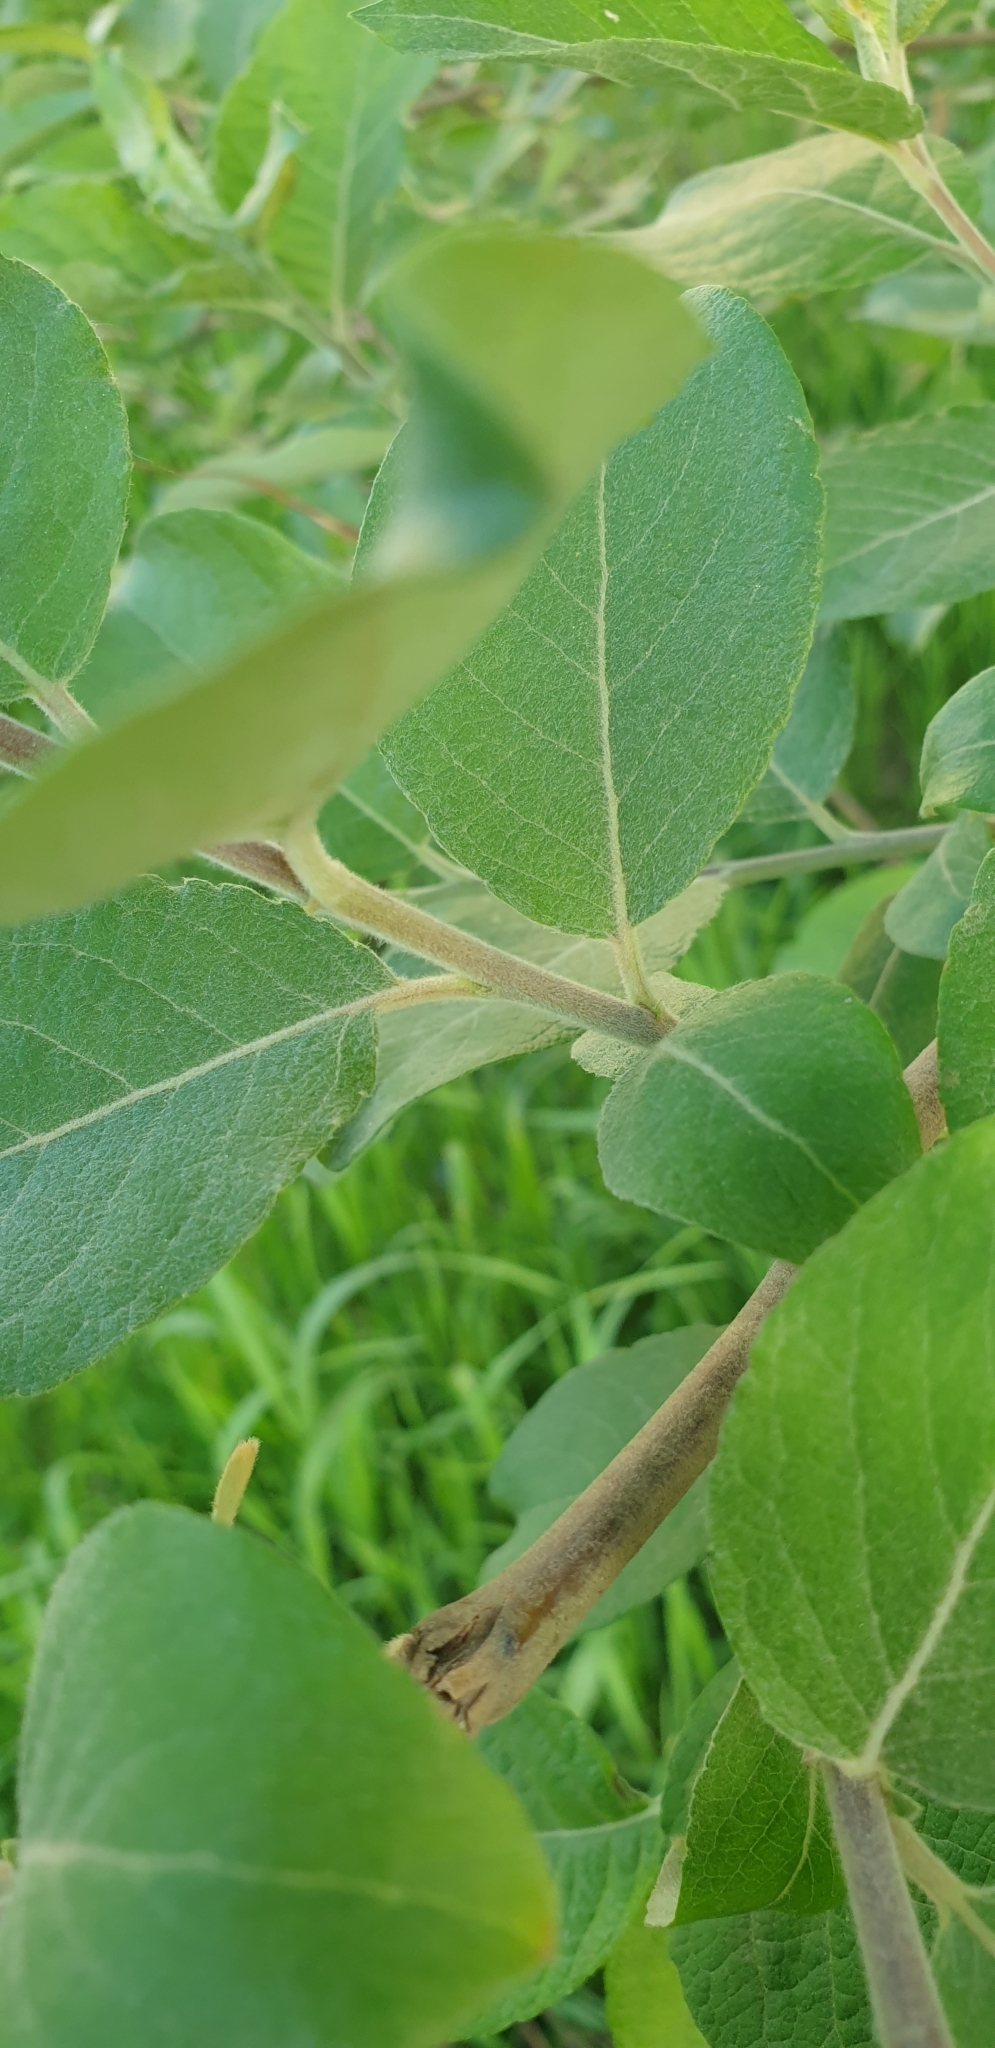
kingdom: Plantae
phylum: Tracheophyta
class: Magnoliopsida
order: Malpighiales
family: Salicaceae
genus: Salix
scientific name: Salix caprea
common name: Goat willow
